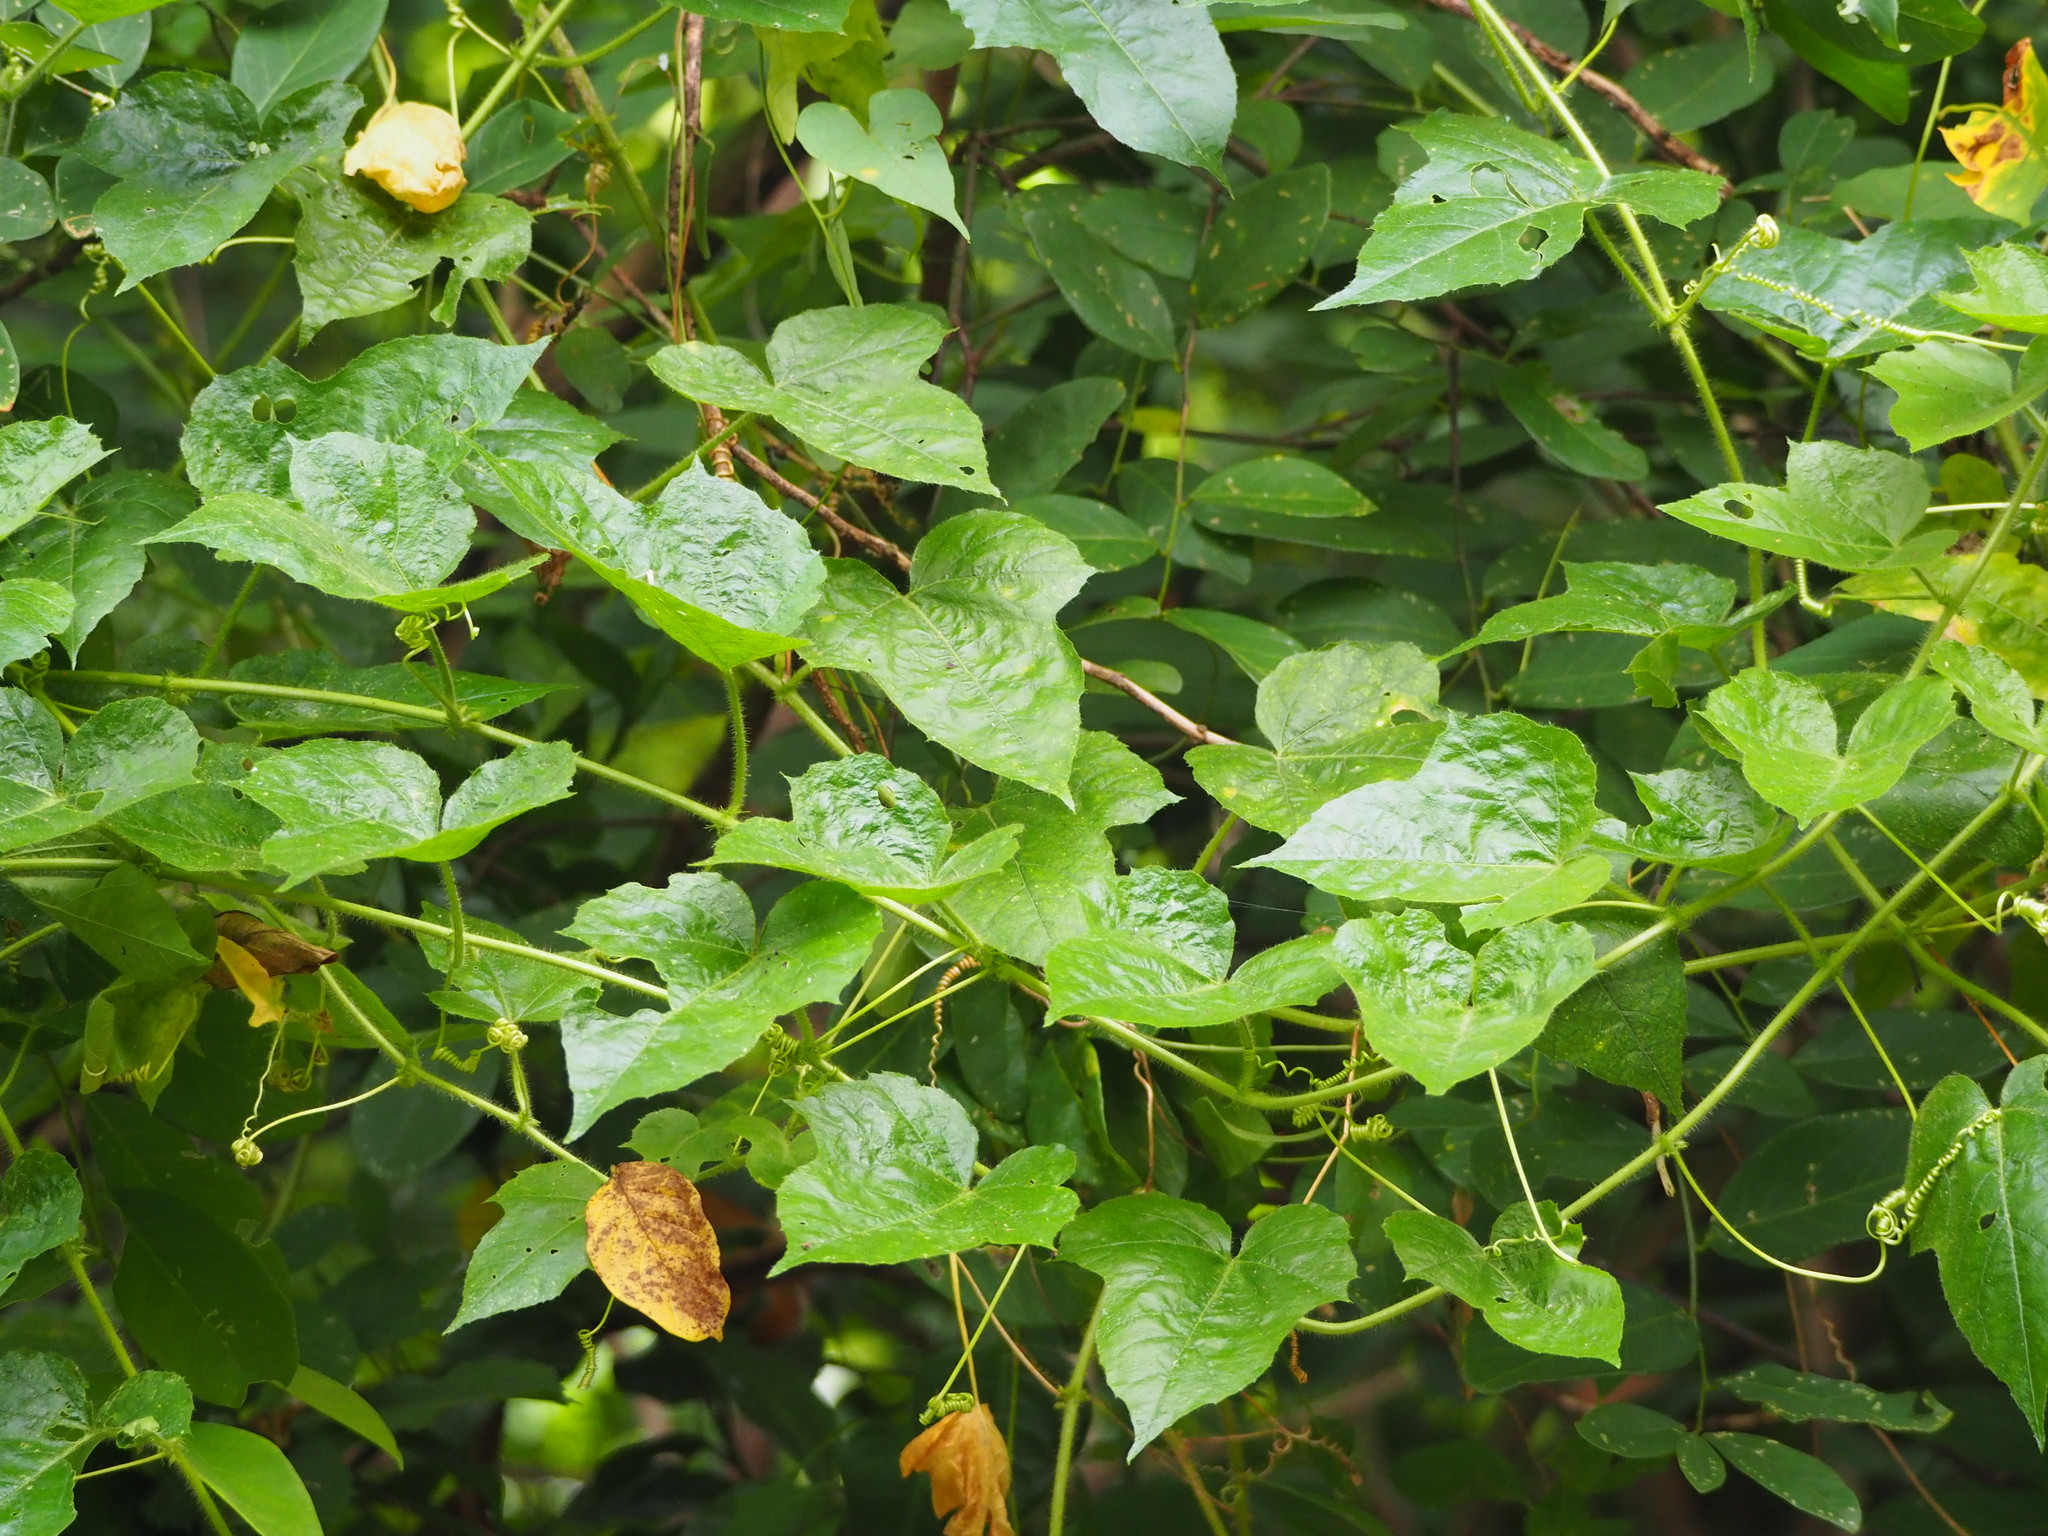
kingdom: Plantae
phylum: Tracheophyta
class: Magnoliopsida
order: Malpighiales
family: Passifloraceae
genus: Passiflora
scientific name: Passiflora vesicaria
